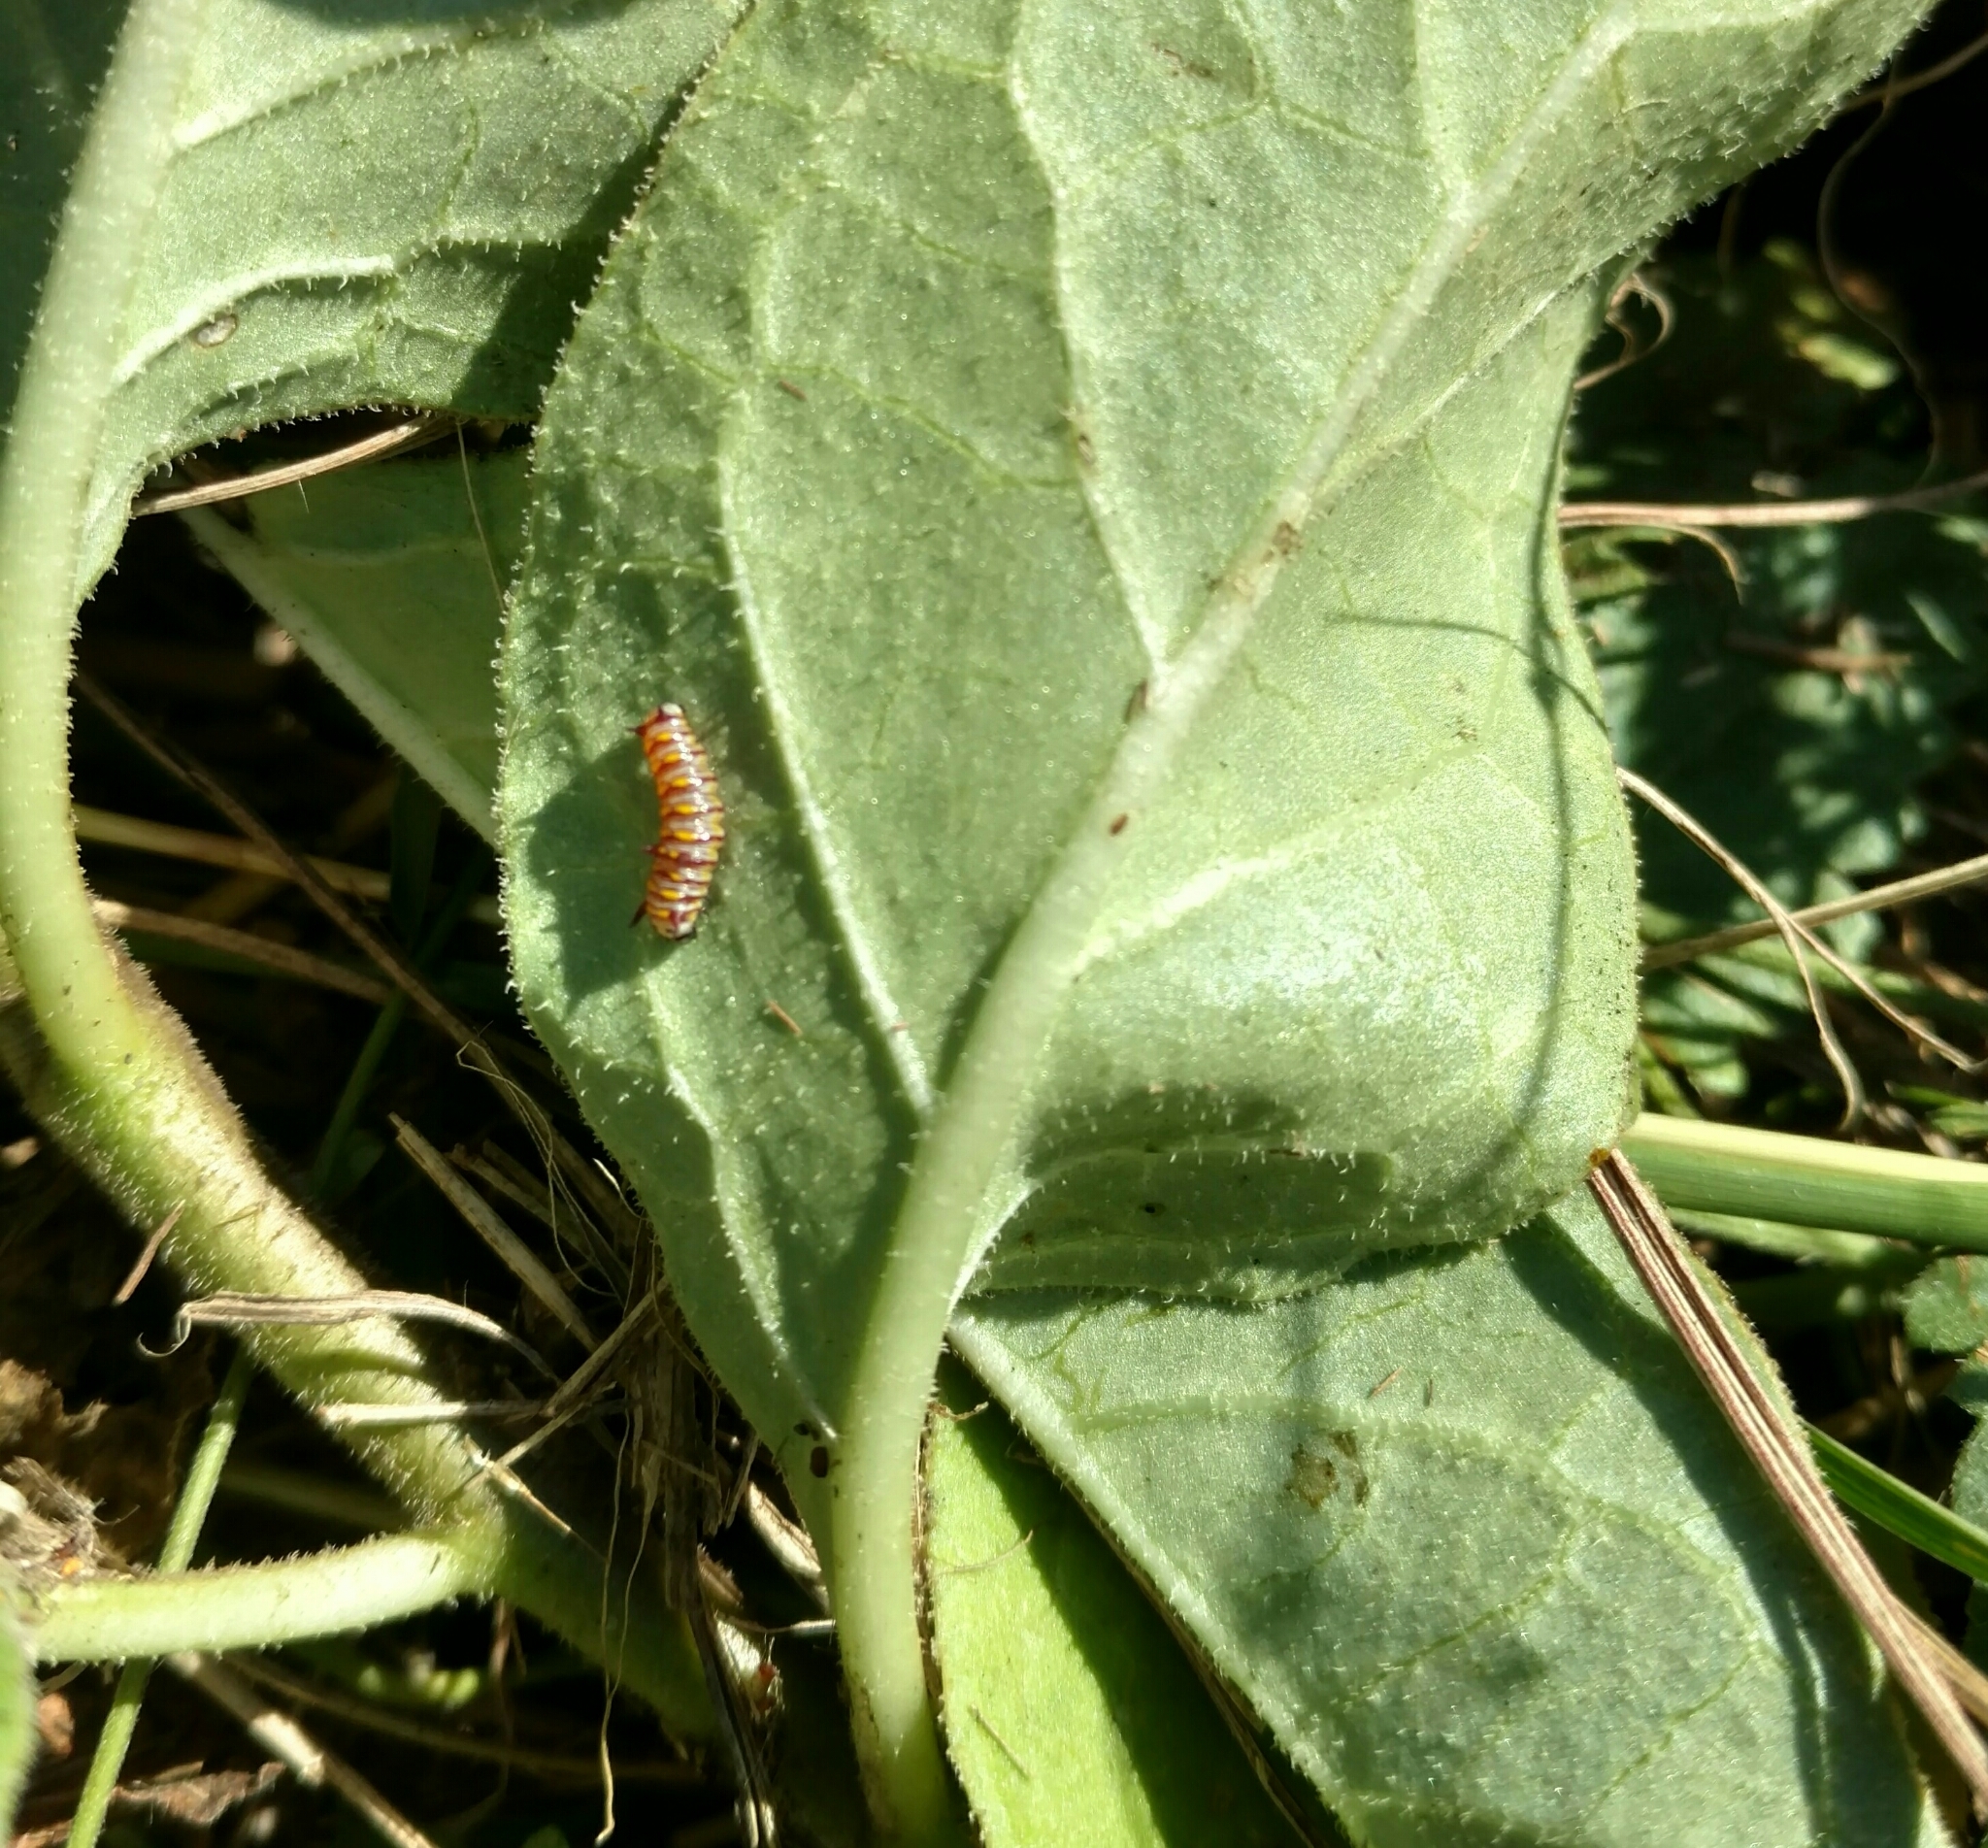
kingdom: Animalia
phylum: Arthropoda
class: Insecta
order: Lepidoptera
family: Nymphalidae
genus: Danaus
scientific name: Danaus gilippus
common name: Queen
